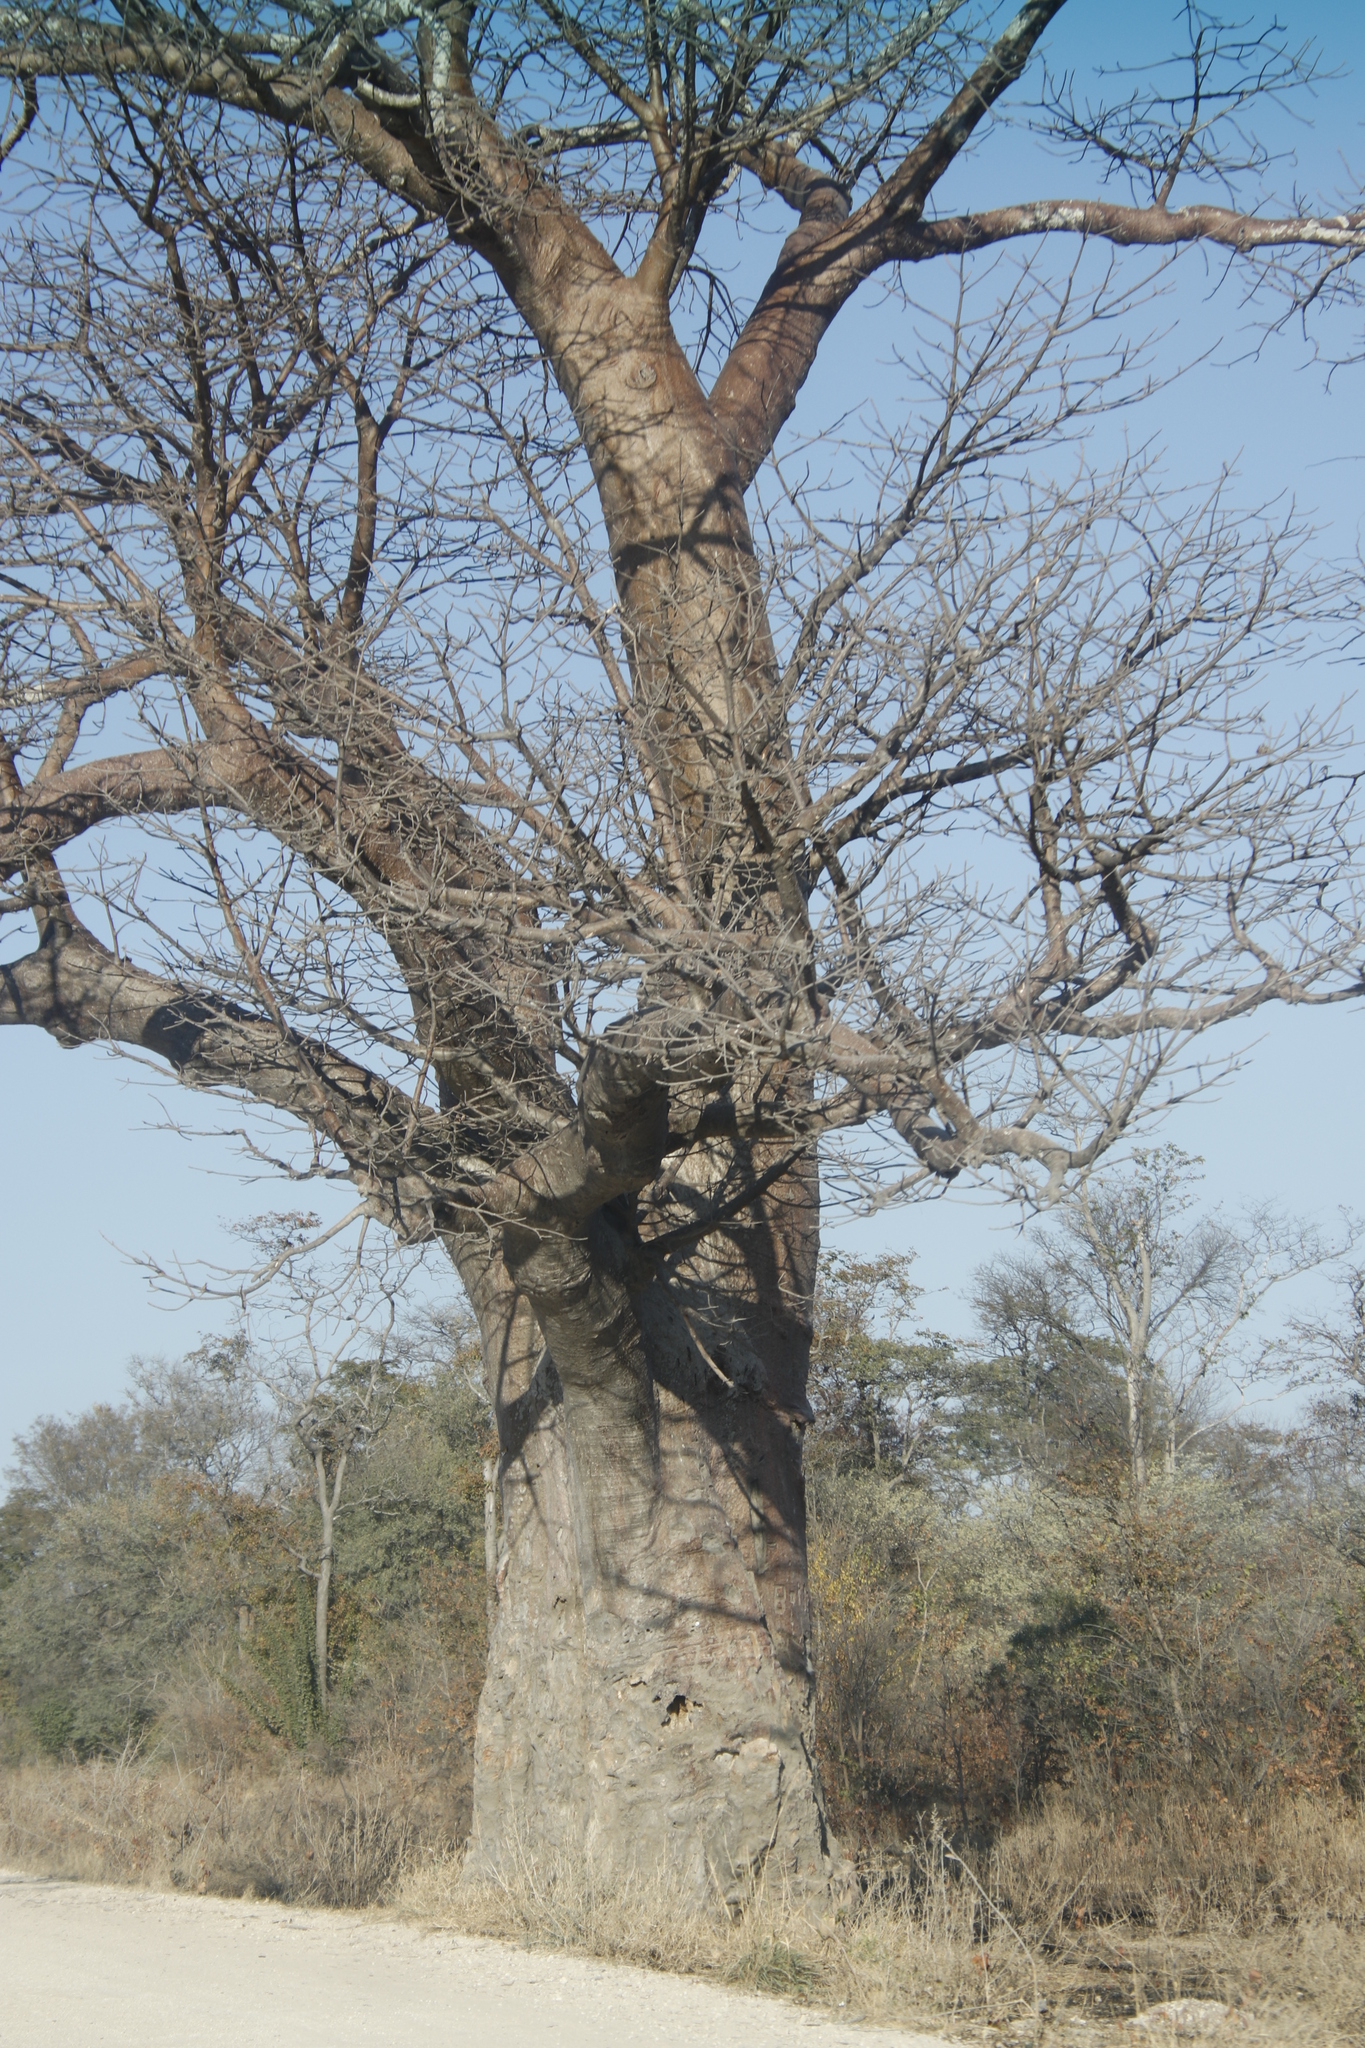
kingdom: Plantae
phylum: Tracheophyta
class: Magnoliopsida
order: Malvales
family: Malvaceae
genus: Adansonia
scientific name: Adansonia digitata
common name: Dead-rat-tree
